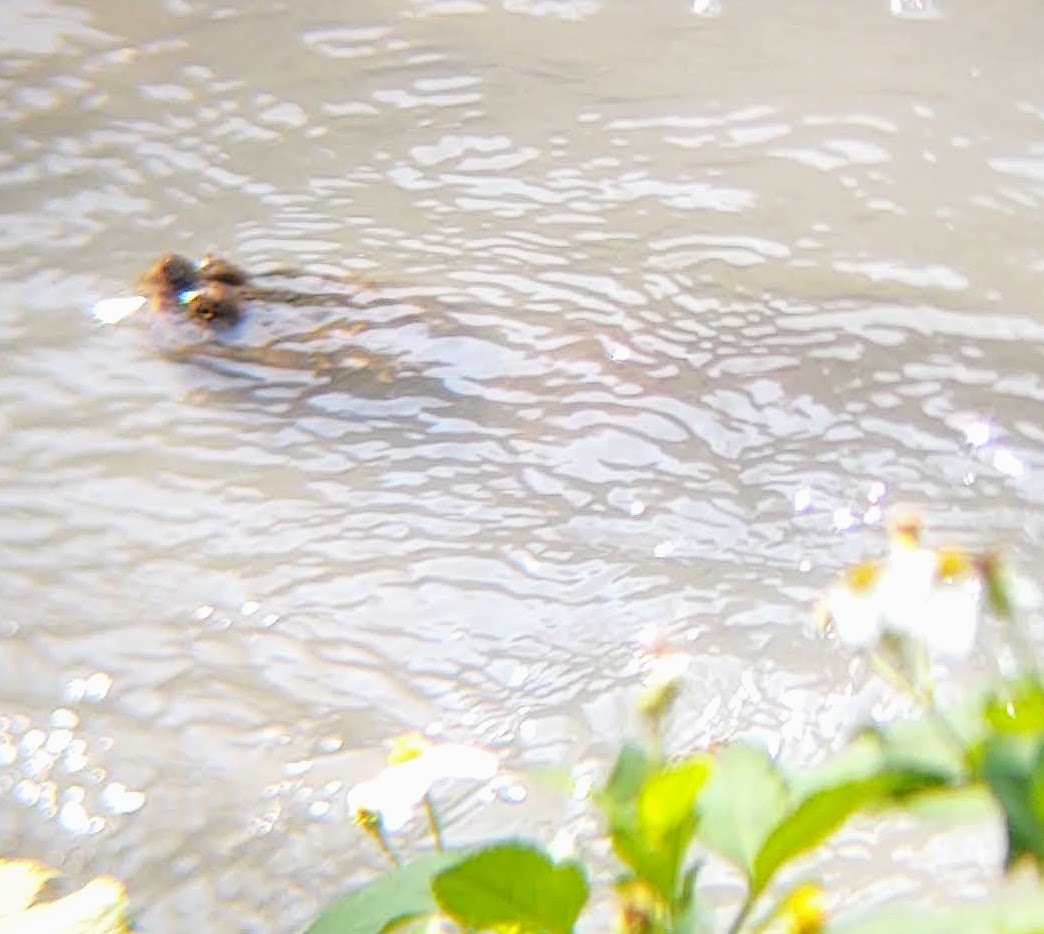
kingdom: Animalia
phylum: Chordata
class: Testudines
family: Chelydridae
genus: Chelydra
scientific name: Chelydra serpentina
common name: Common snapping turtle
